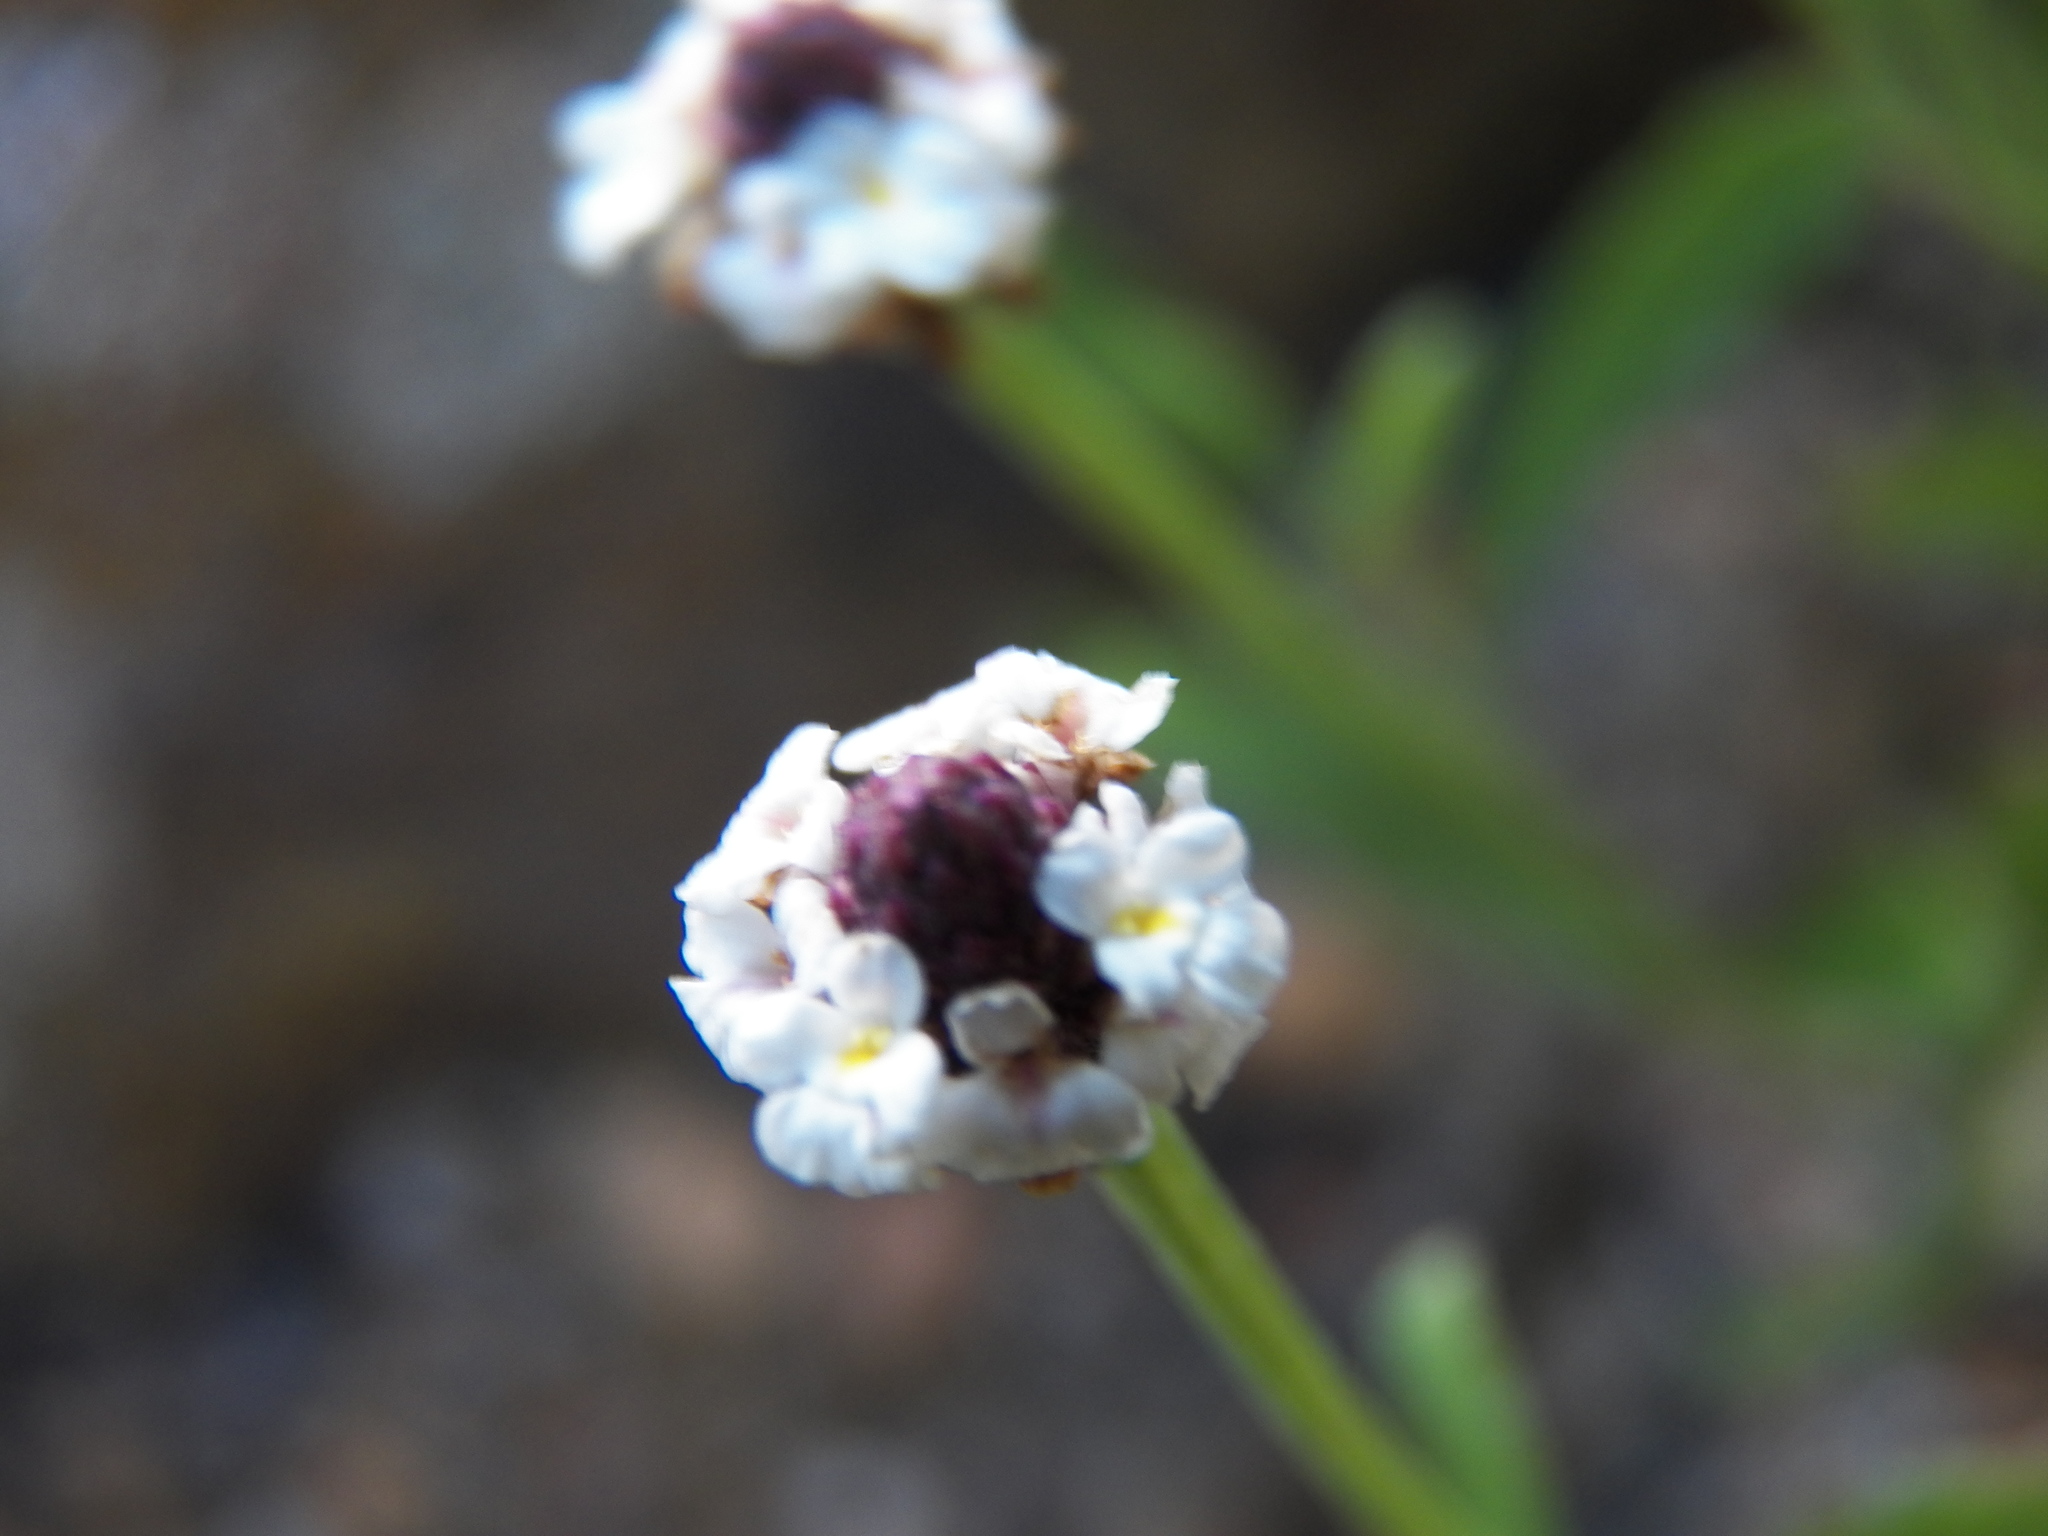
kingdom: Plantae
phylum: Tracheophyta
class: Magnoliopsida
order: Lamiales
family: Verbenaceae
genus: Phyla
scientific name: Phyla
